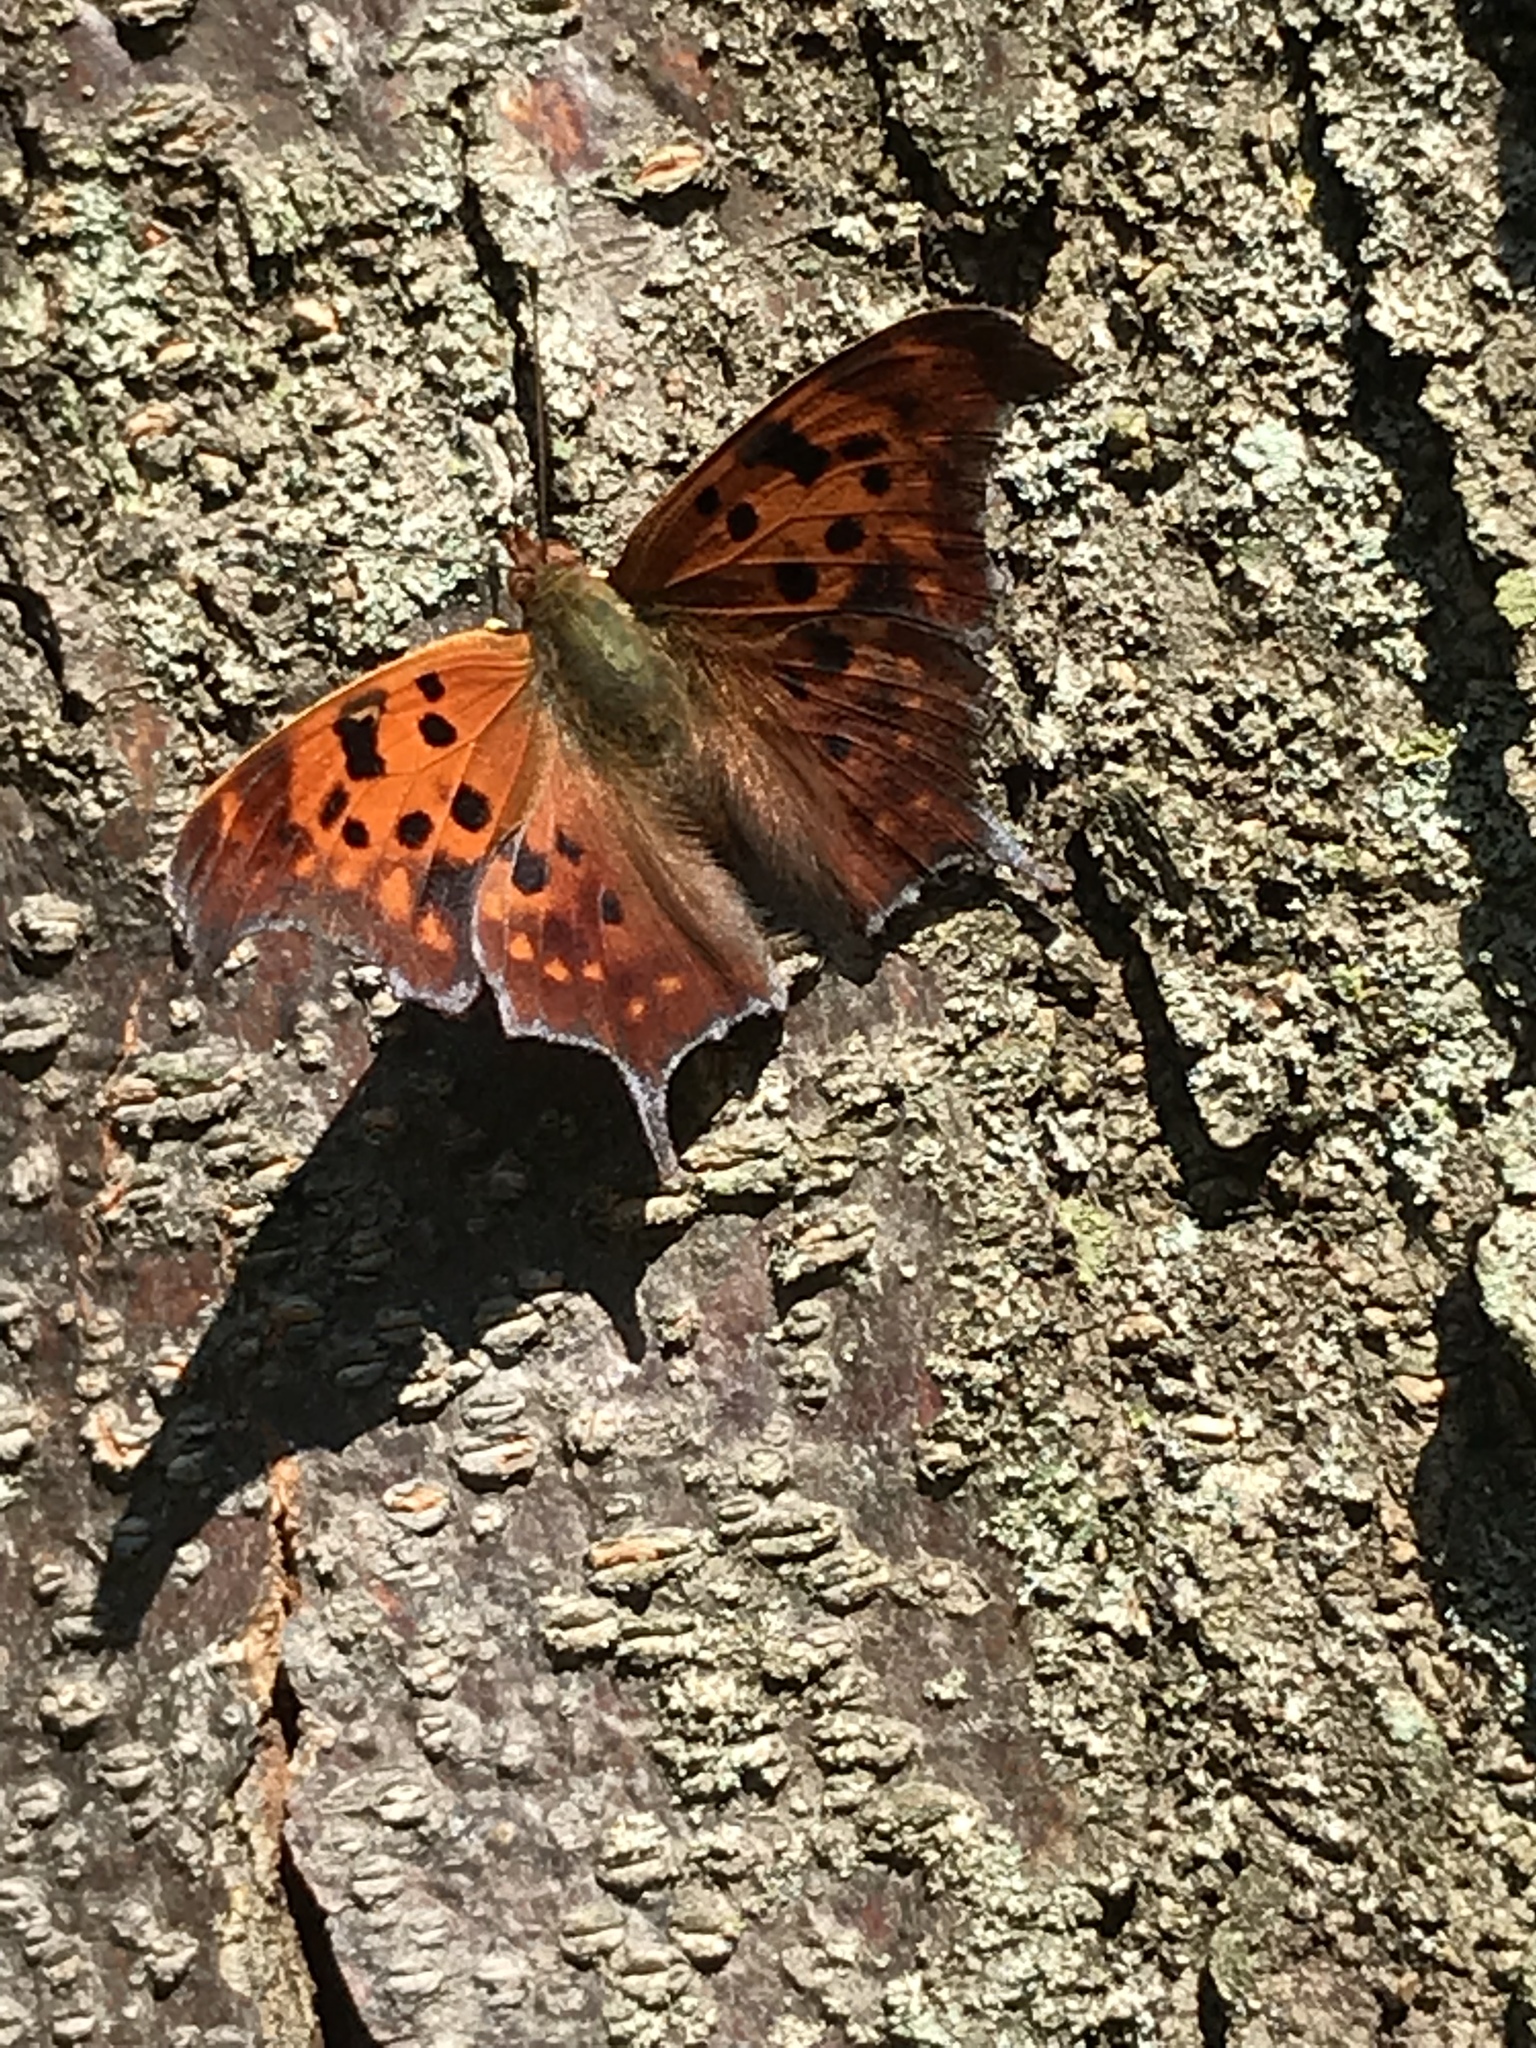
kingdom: Animalia
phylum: Arthropoda
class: Insecta
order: Lepidoptera
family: Nymphalidae
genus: Polygonia
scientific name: Polygonia interrogationis
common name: Question mark
